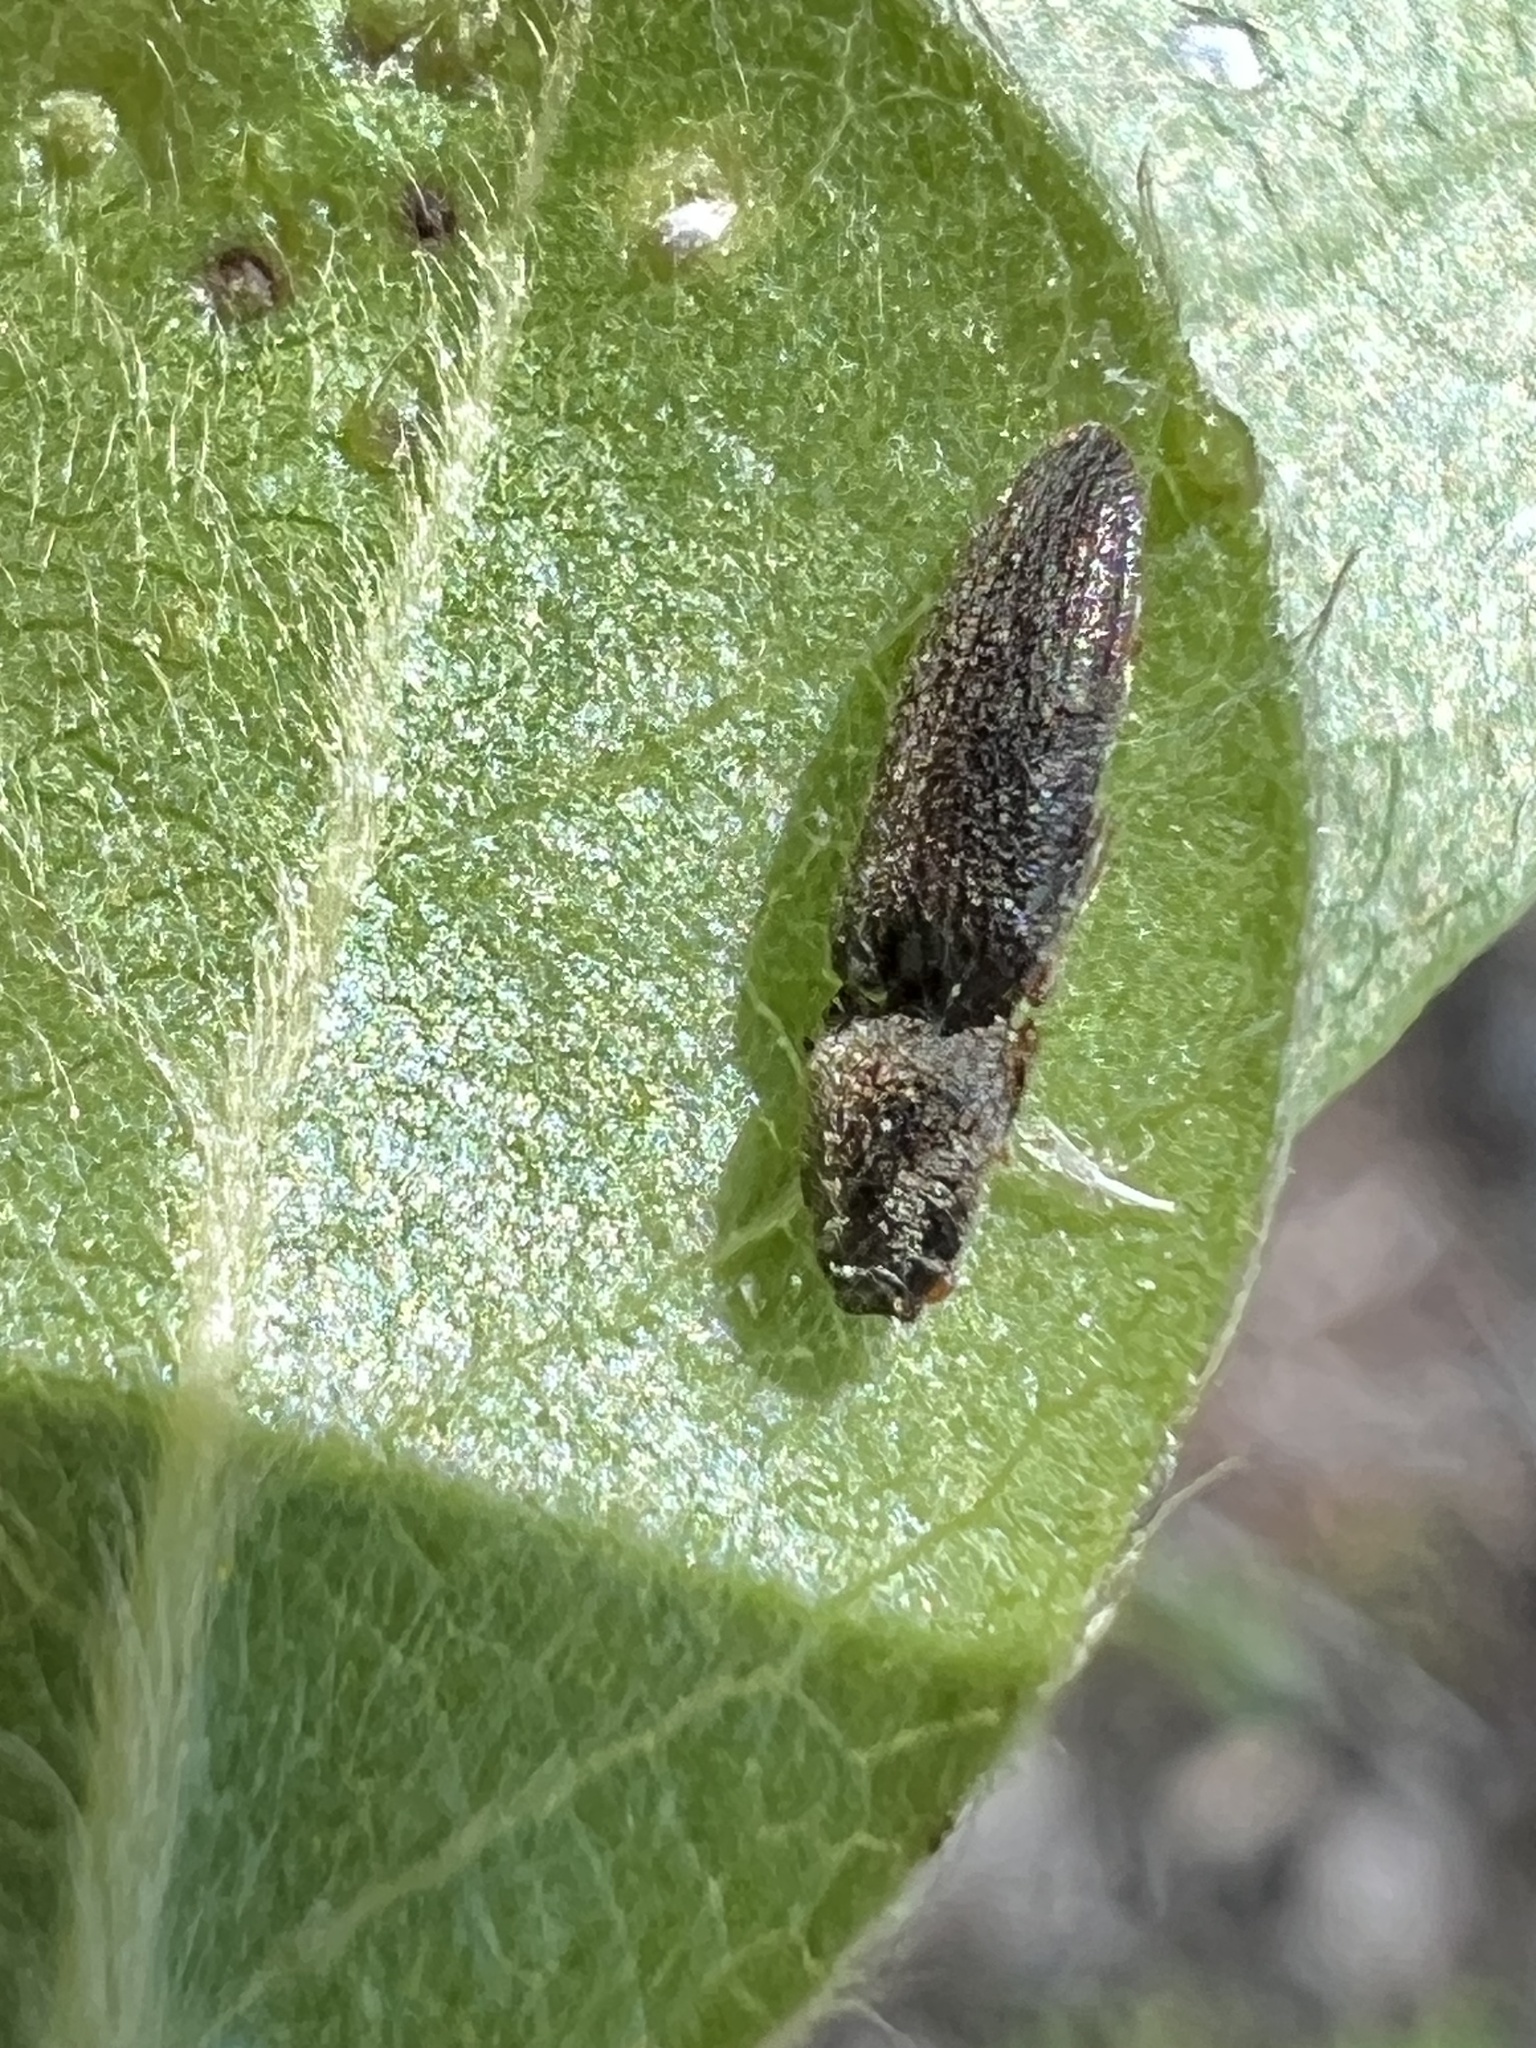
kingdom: Animalia
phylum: Arthropoda
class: Insecta
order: Coleoptera
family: Elateridae
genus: Limonius
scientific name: Limonius quercinus
